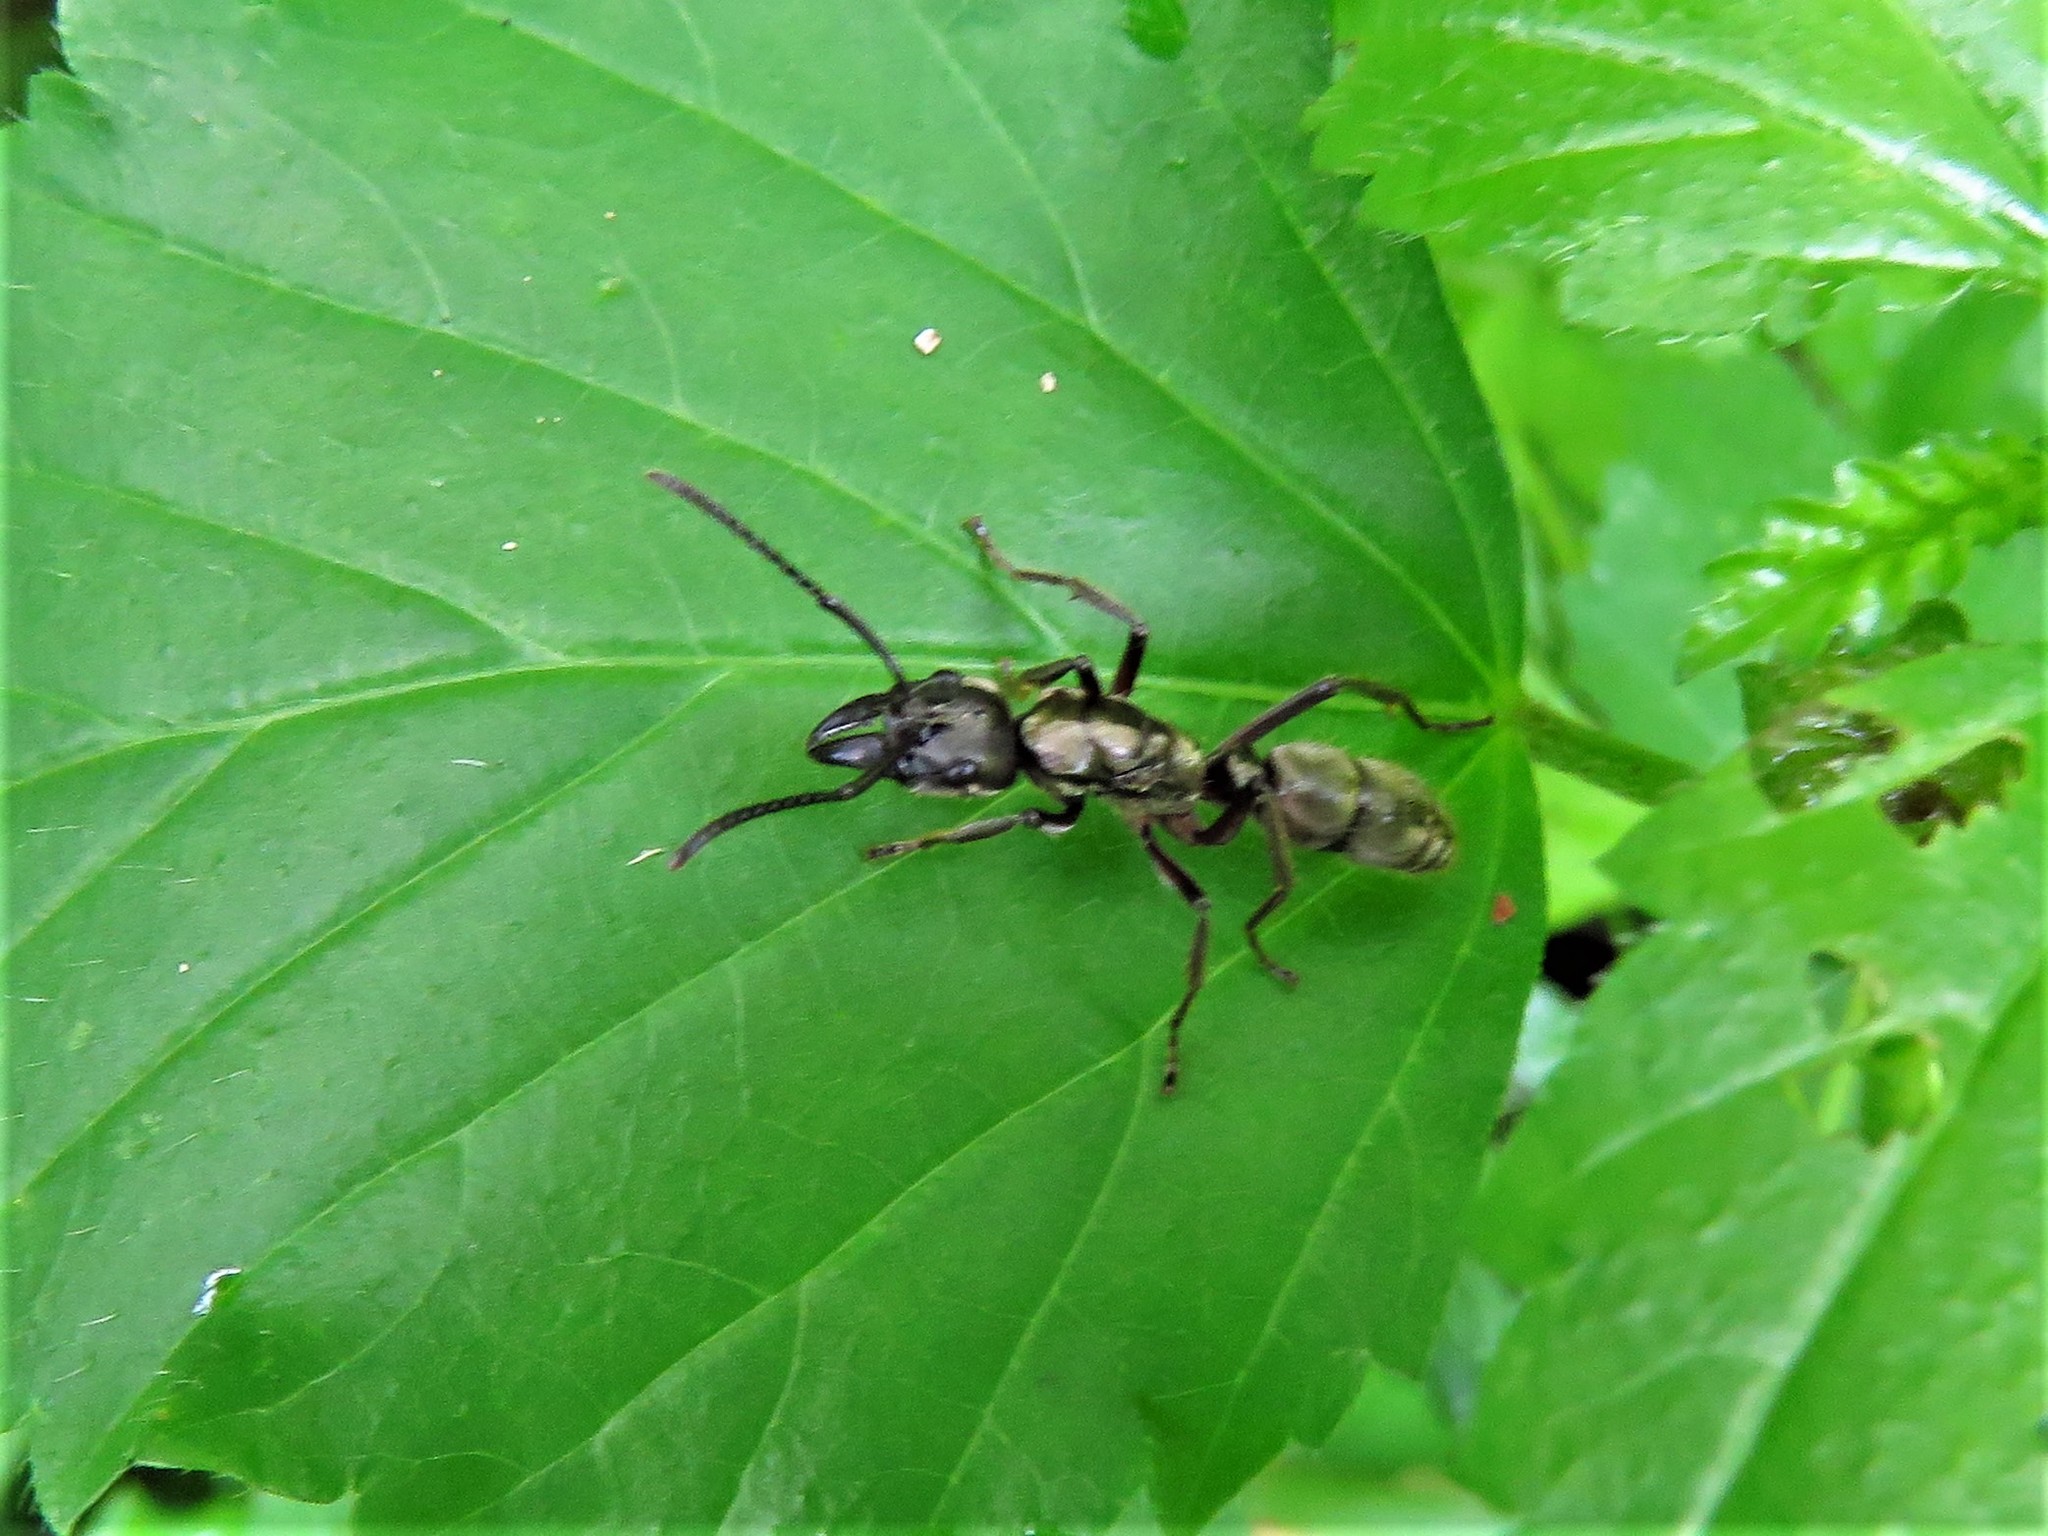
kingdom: Animalia
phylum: Arthropoda
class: Insecta
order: Hymenoptera
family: Formicidae
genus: Pachycondyla
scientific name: Pachycondyla villosa
